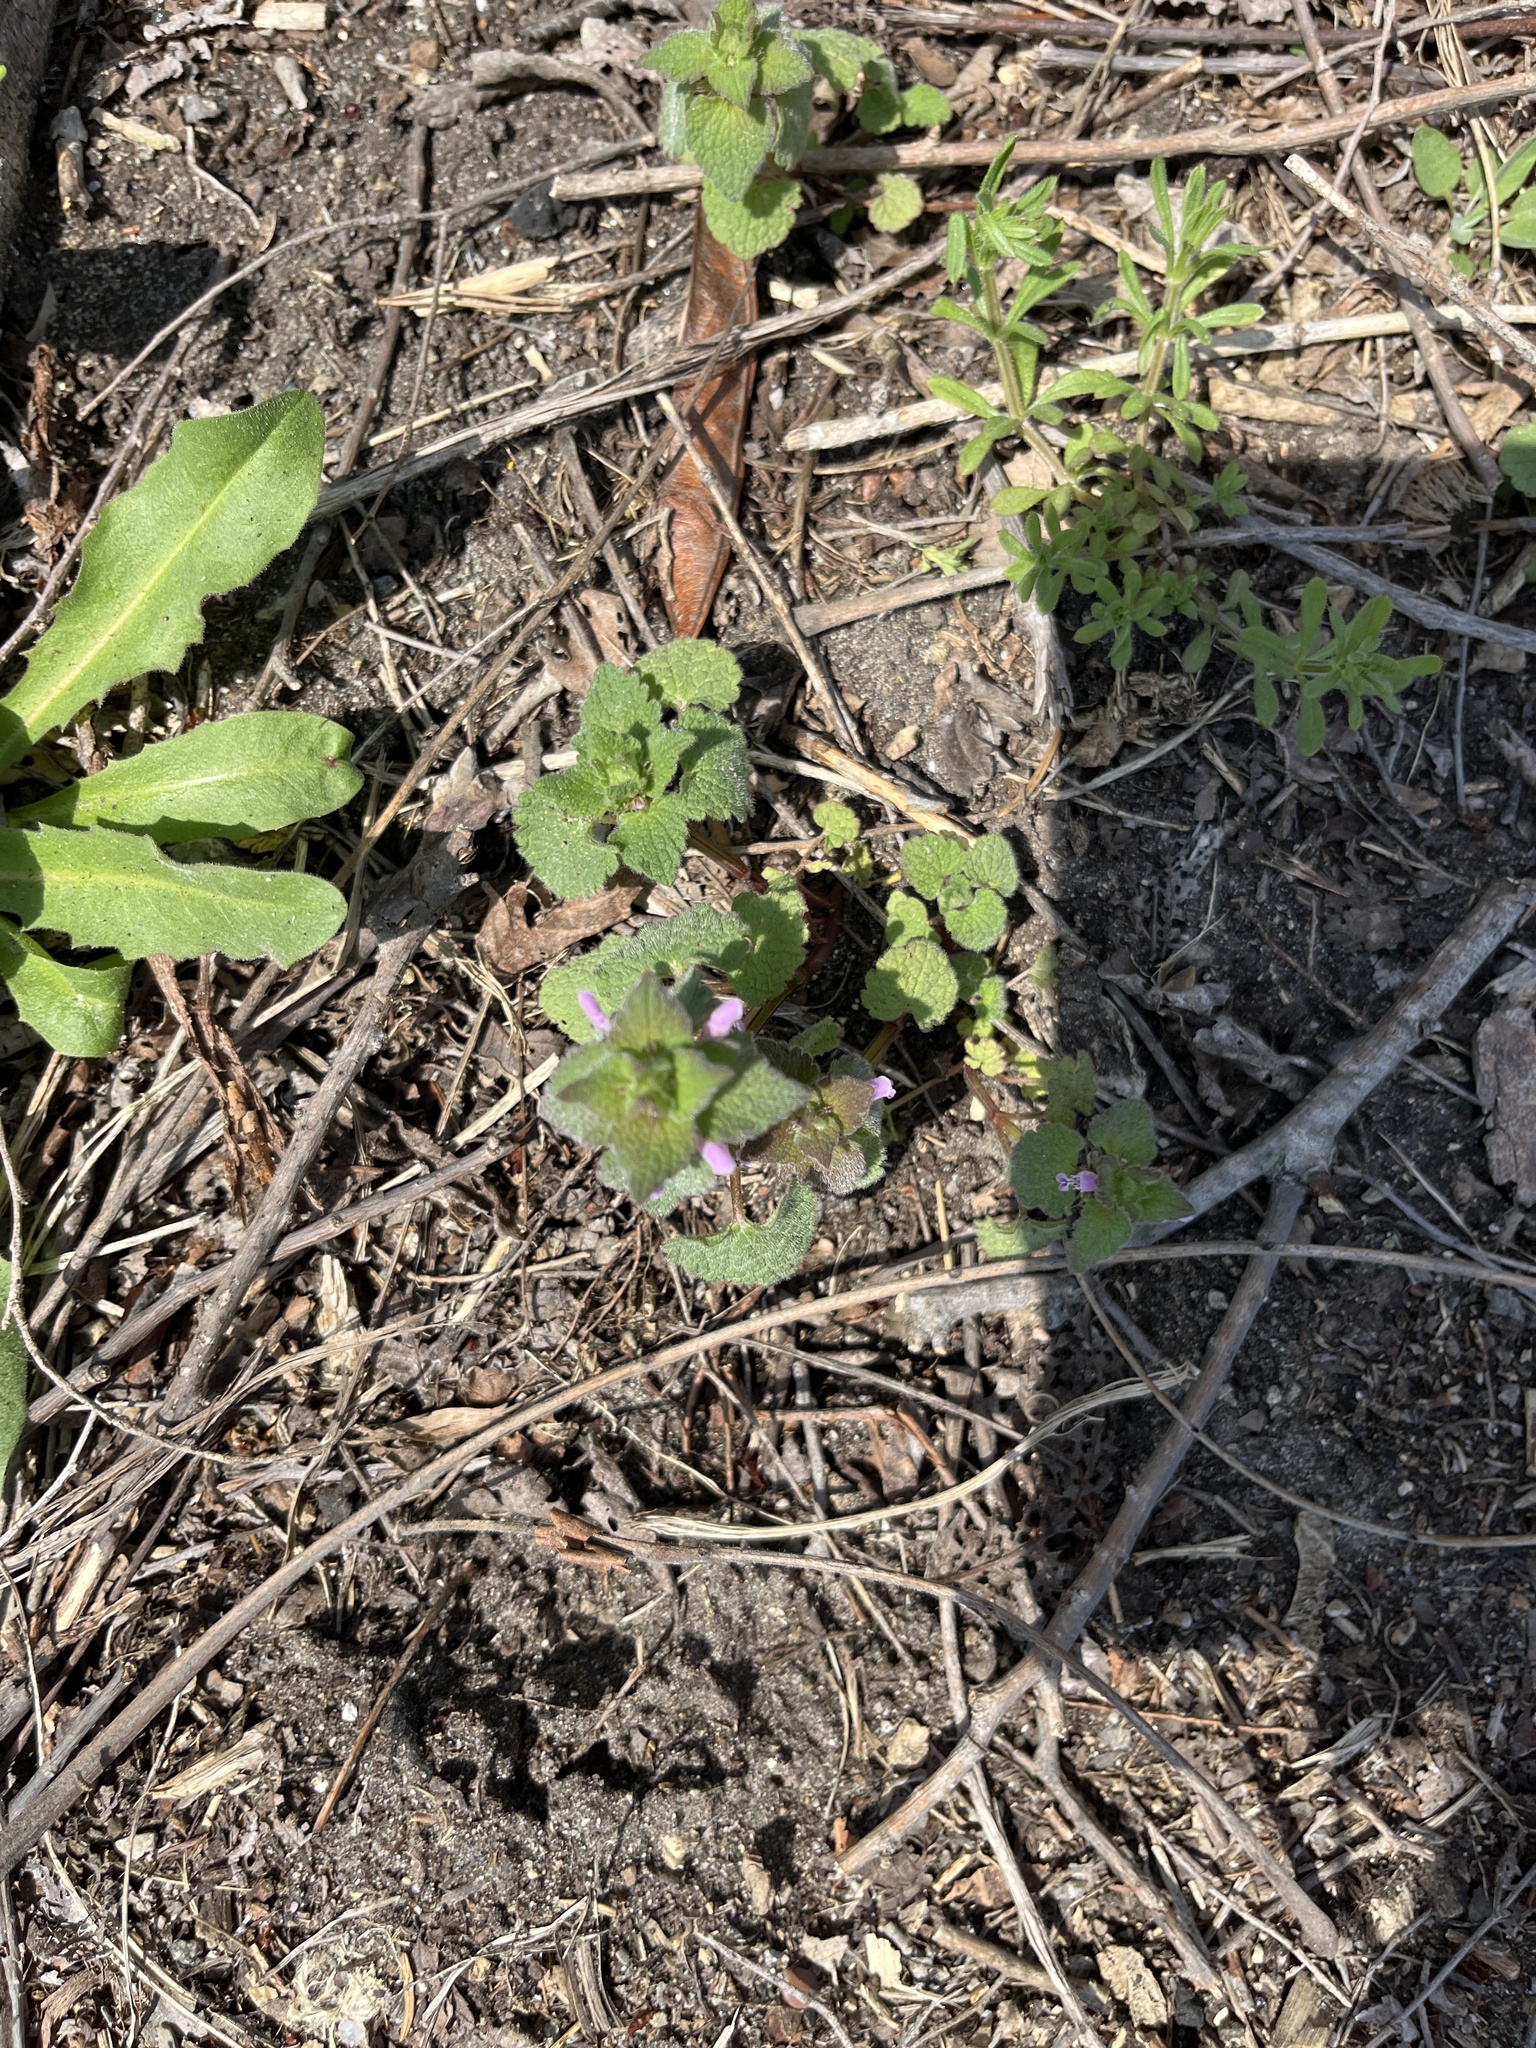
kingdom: Plantae
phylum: Tracheophyta
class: Magnoliopsida
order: Lamiales
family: Lamiaceae
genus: Lamium
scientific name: Lamium purpureum
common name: Red dead-nettle
